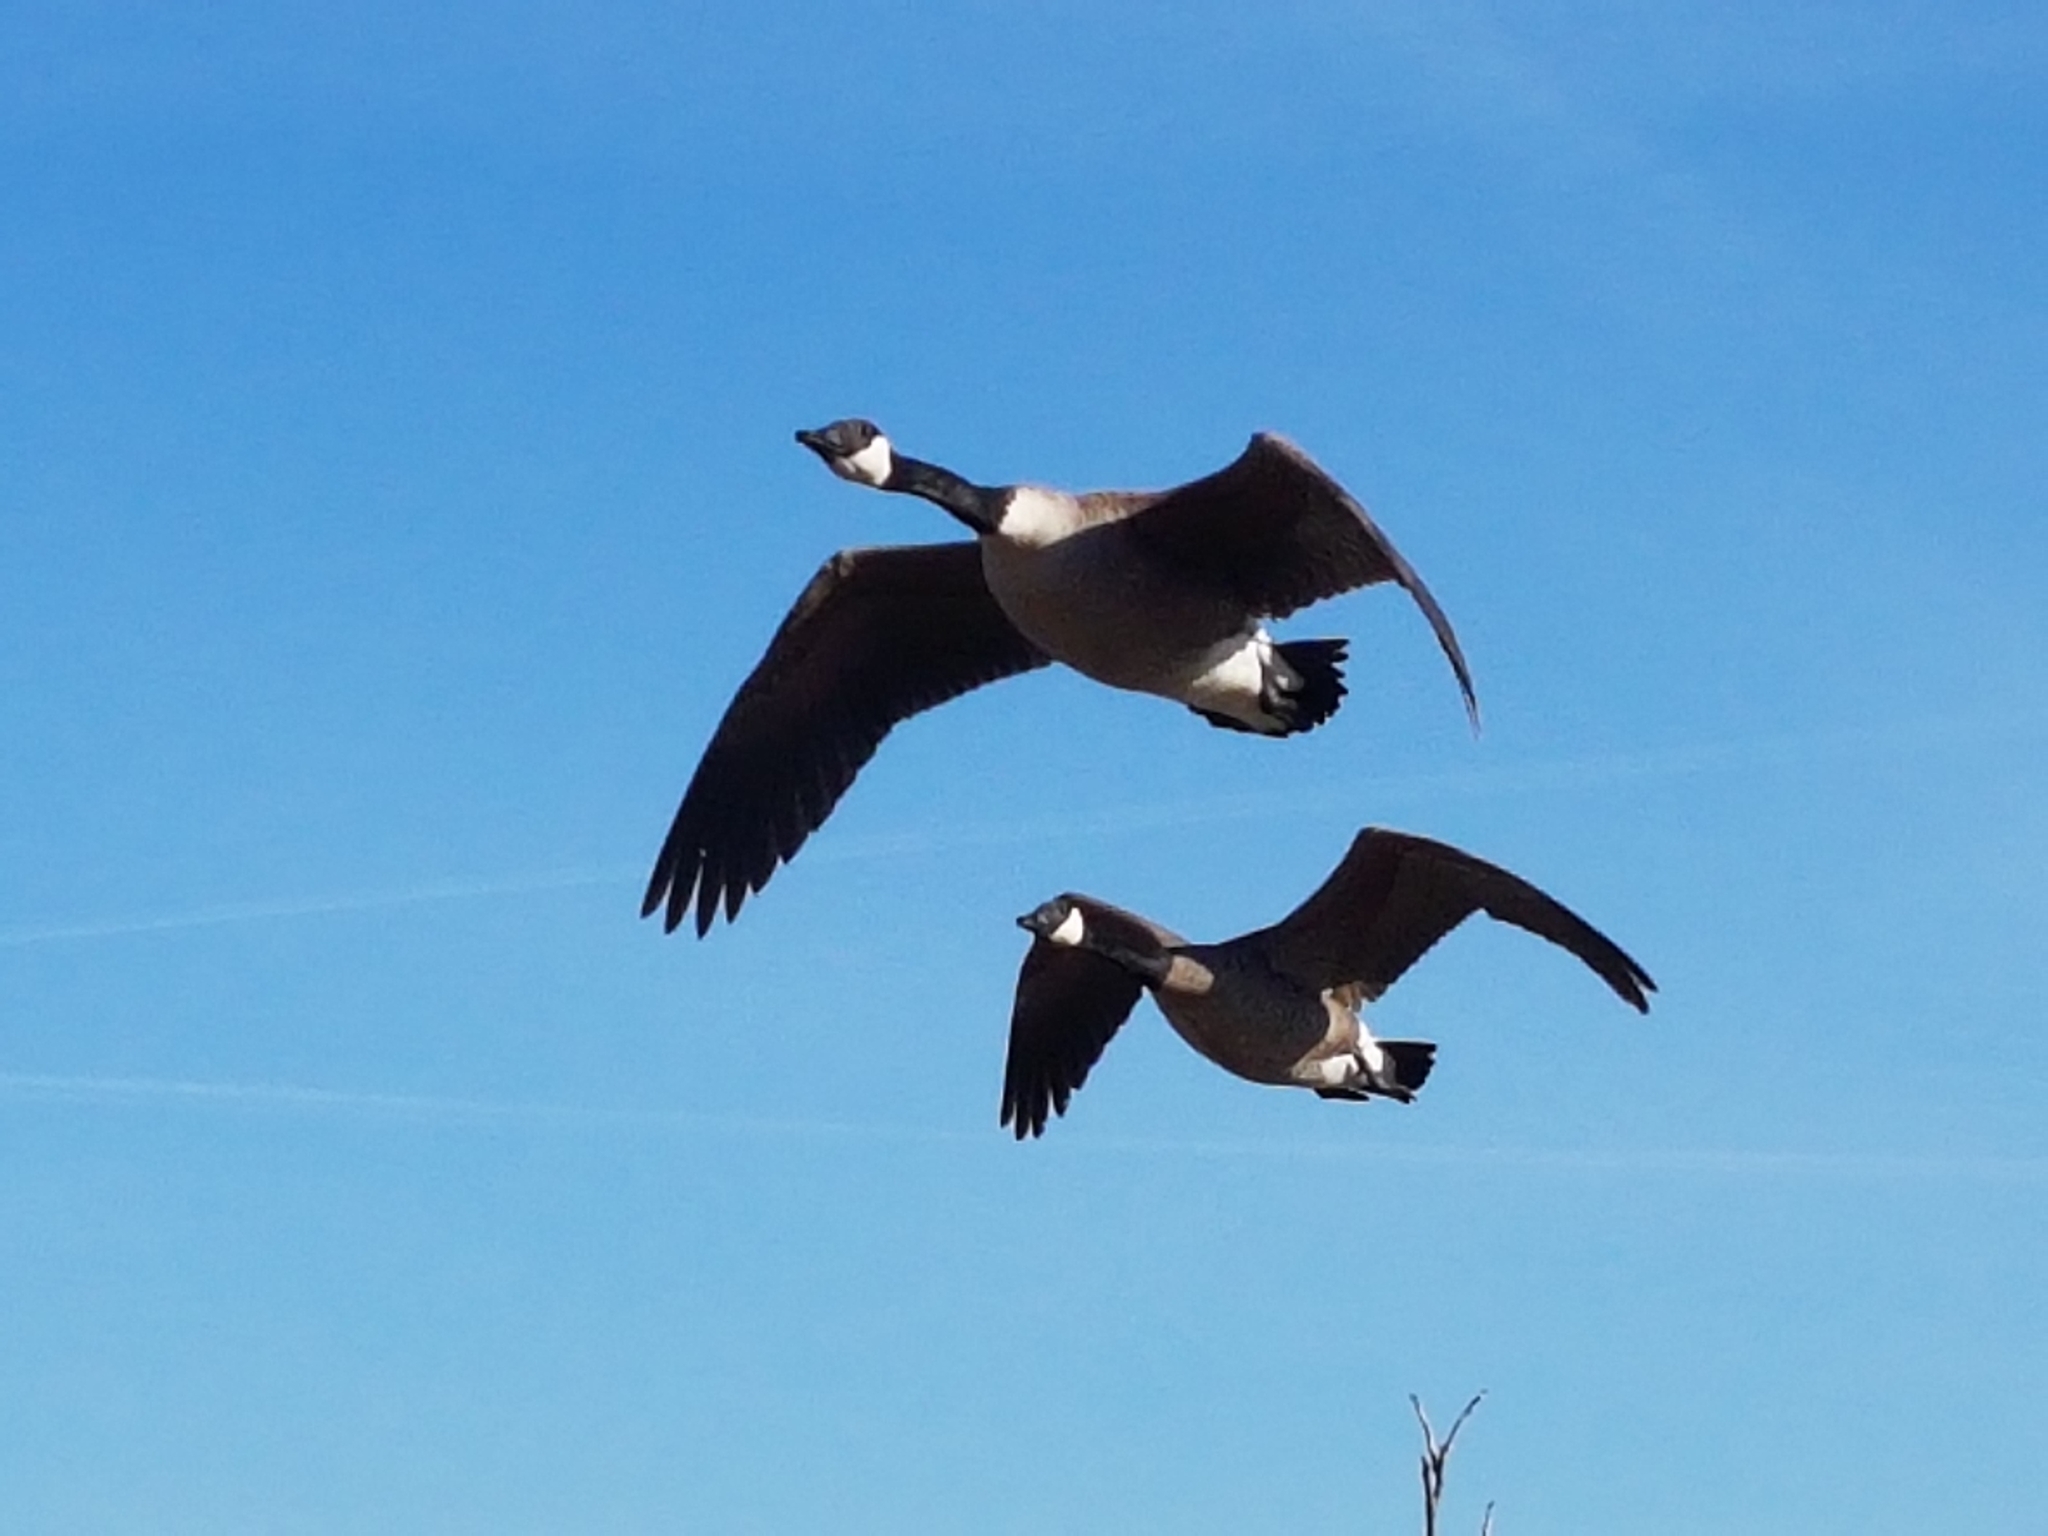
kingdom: Animalia
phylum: Chordata
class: Aves
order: Anseriformes
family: Anatidae
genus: Branta
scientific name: Branta canadensis
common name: Canada goose
